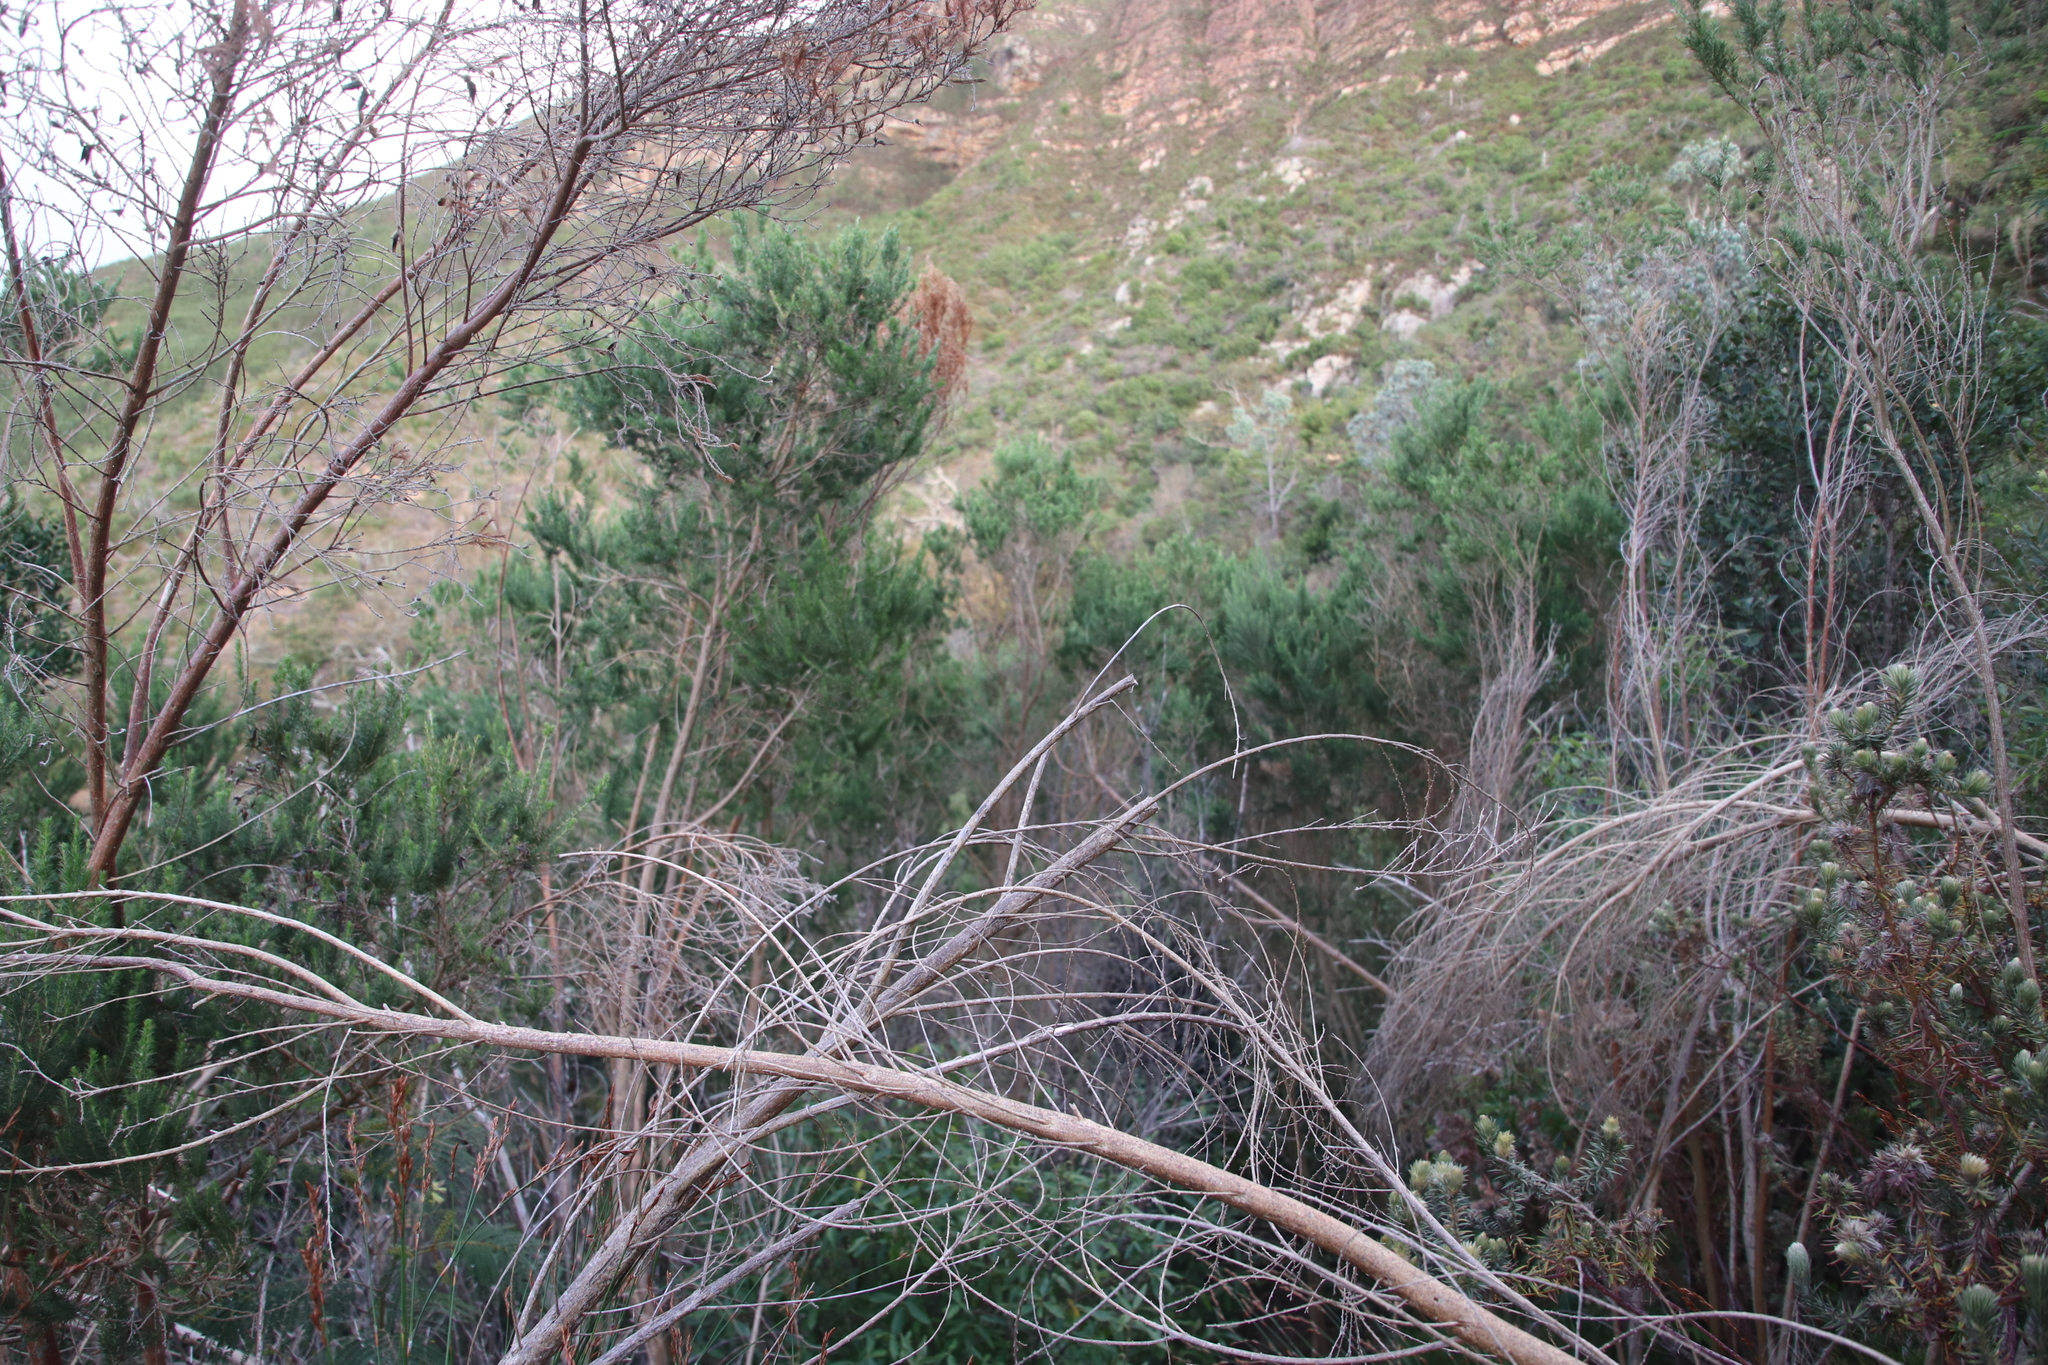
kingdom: Plantae
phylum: Tracheophyta
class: Magnoliopsida
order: Fabales
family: Fabaceae
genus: Aspalathus
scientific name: Aspalathus chenopoda
